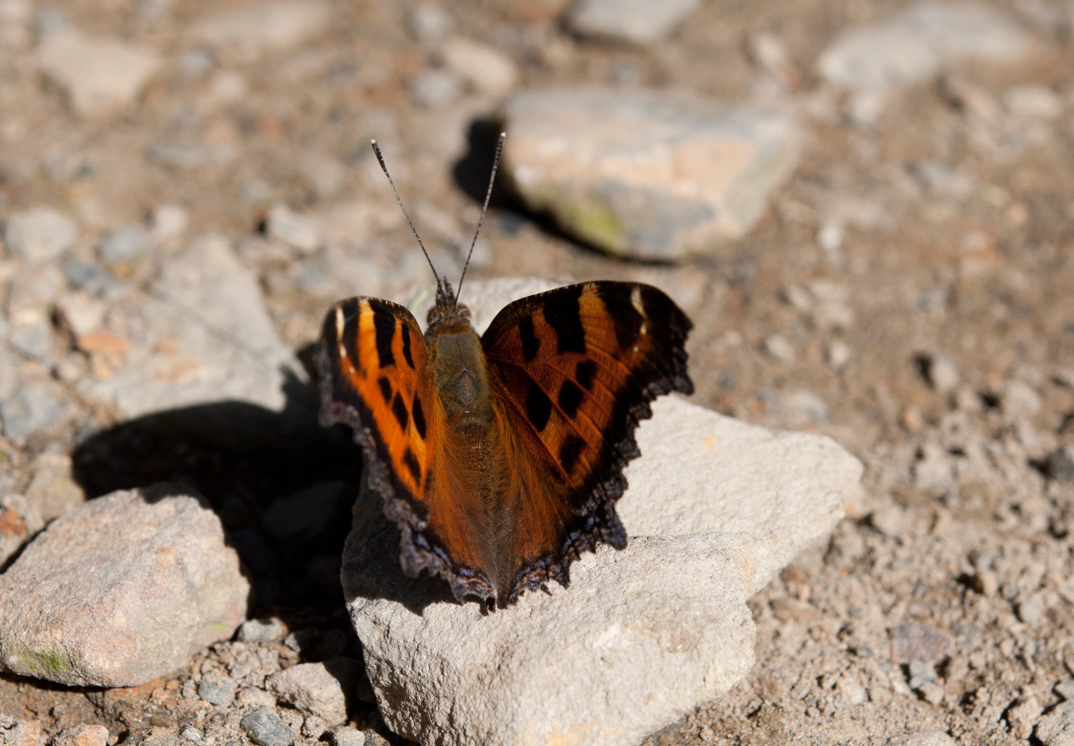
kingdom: Animalia
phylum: Arthropoda
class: Insecta
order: Lepidoptera
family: Nymphalidae
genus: Nymphalis
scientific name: Nymphalis xanthomelas
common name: Scarce tortoiseshell
